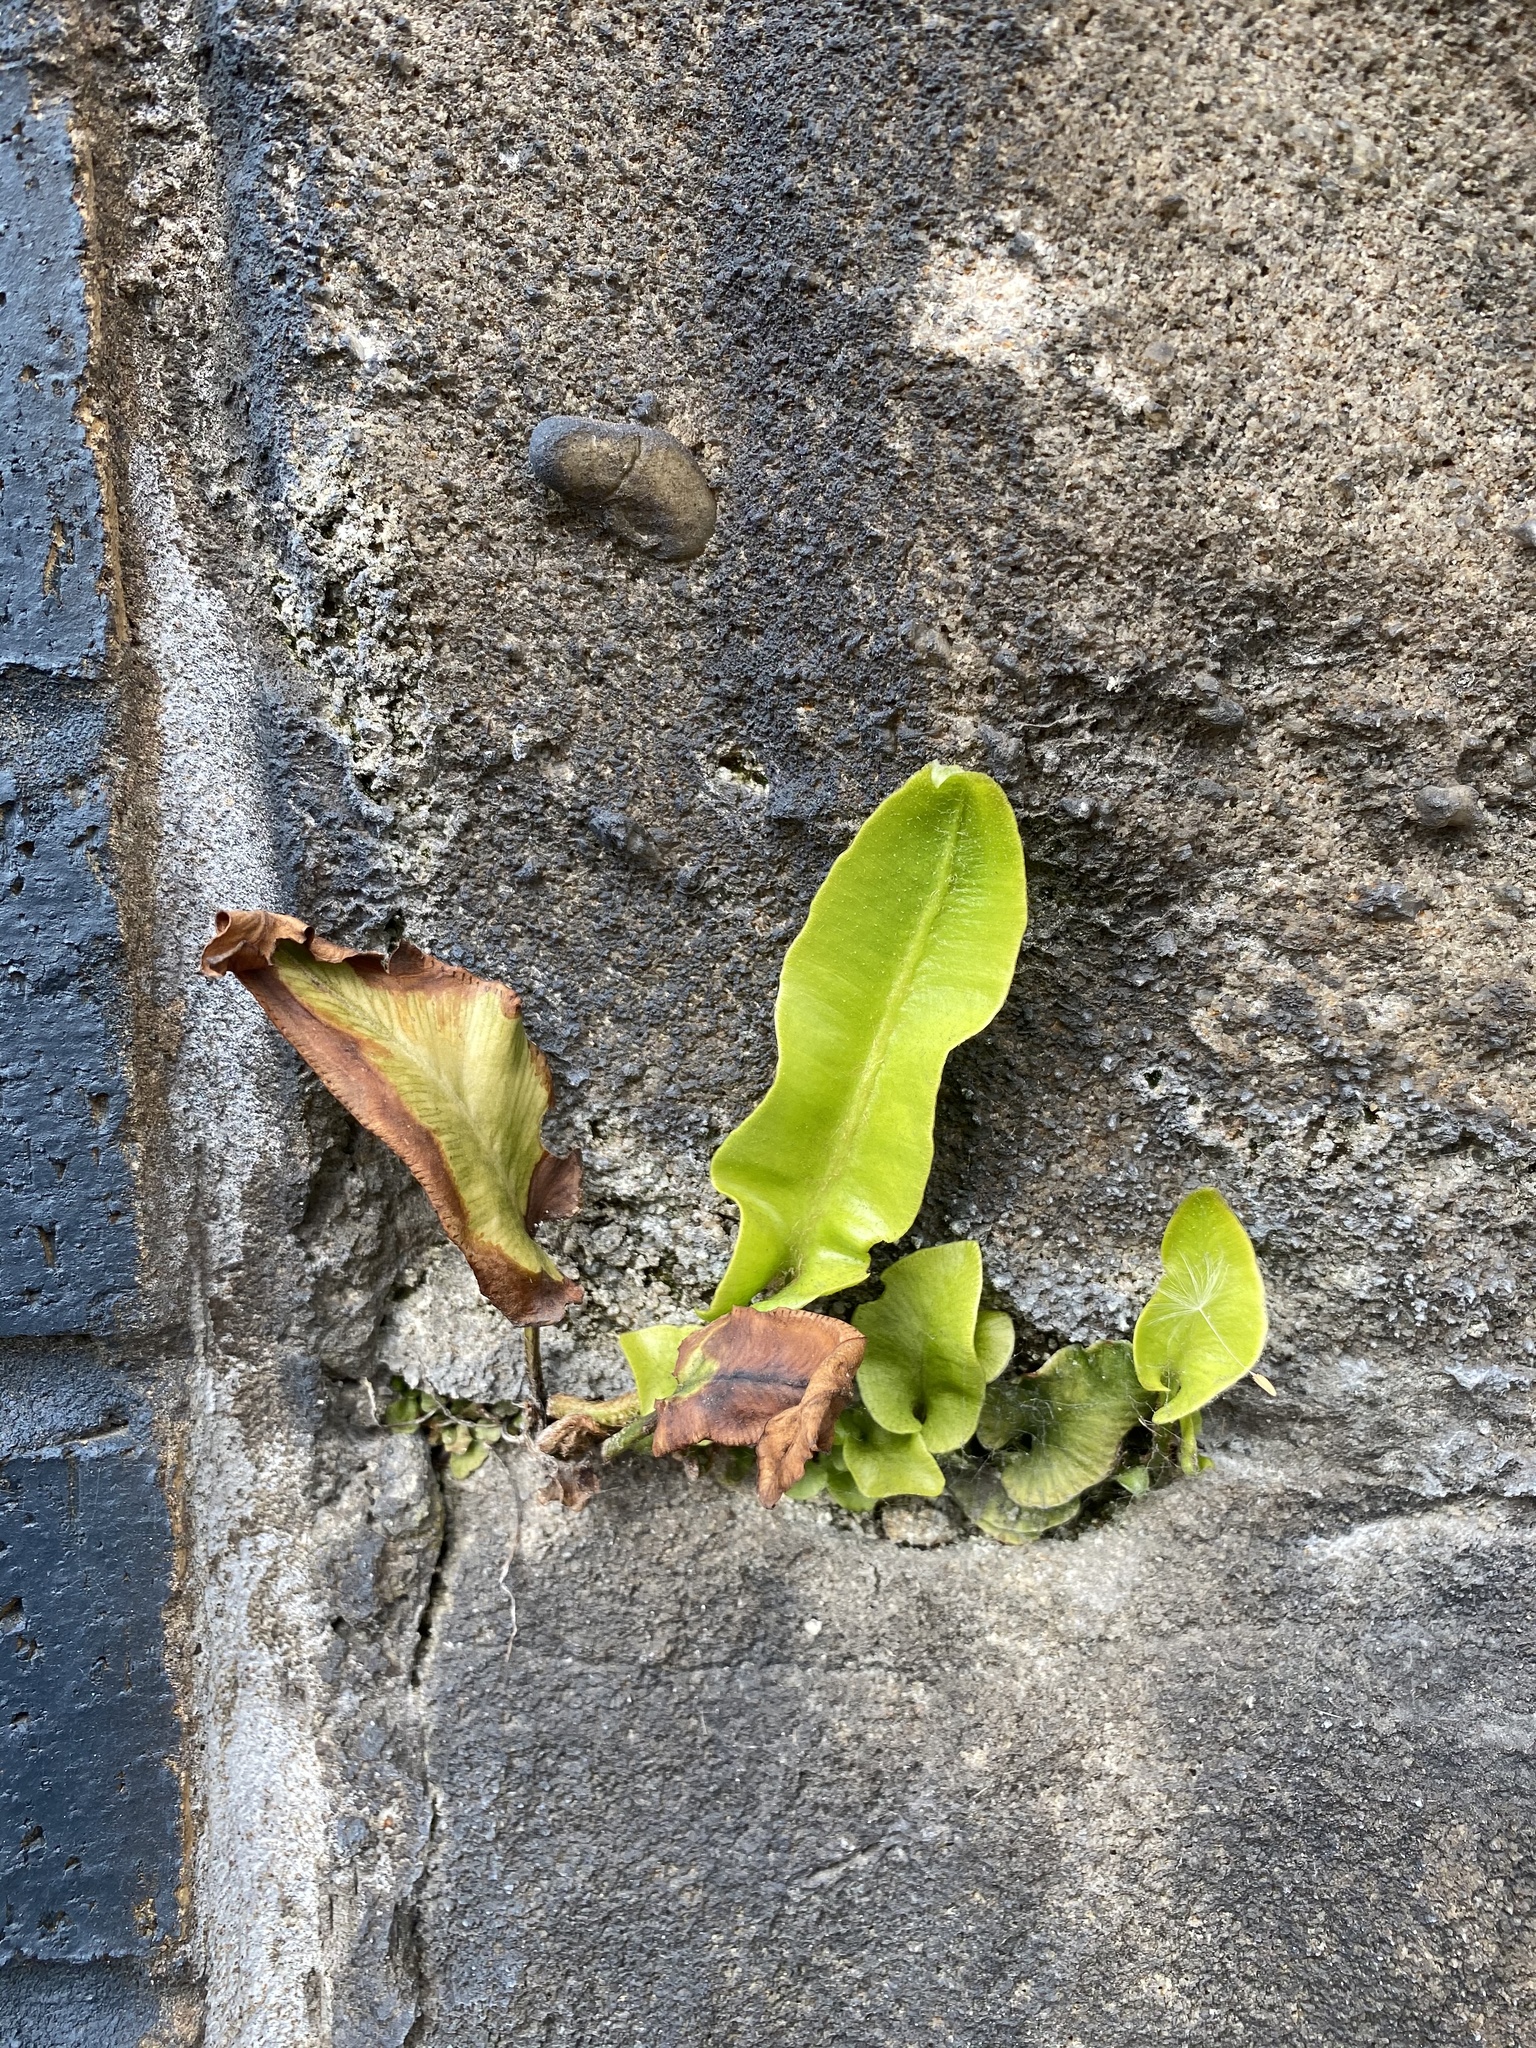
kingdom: Plantae
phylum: Tracheophyta
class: Polypodiopsida
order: Polypodiales
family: Aspleniaceae
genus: Asplenium
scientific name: Asplenium scolopendrium
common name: Hart's-tongue fern
